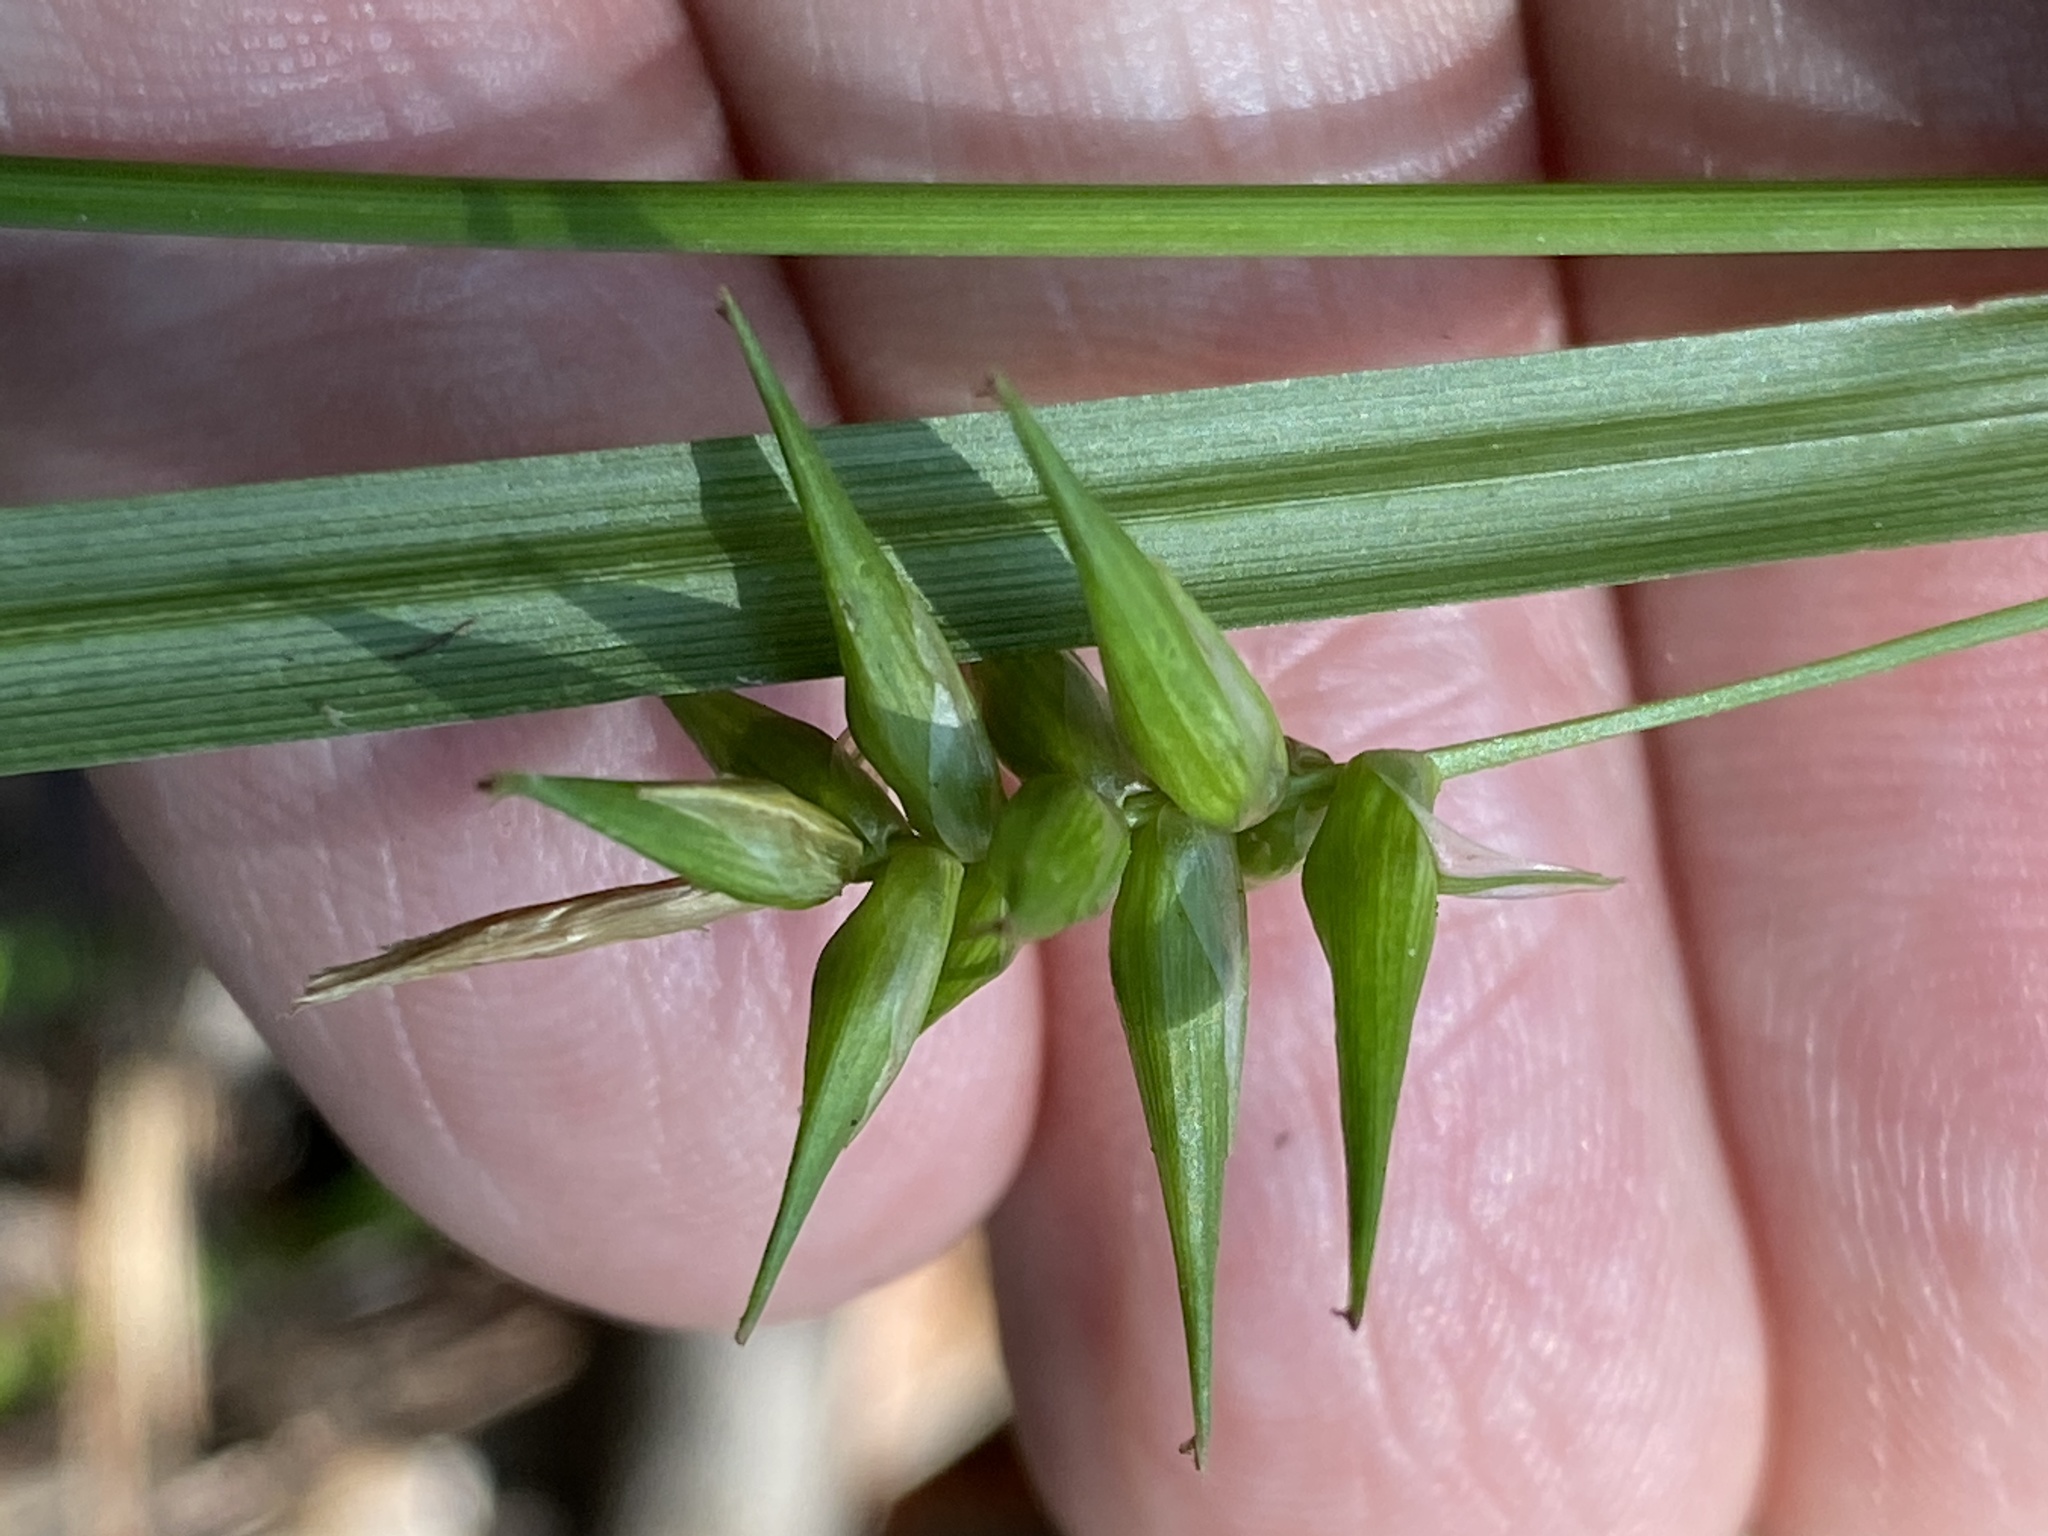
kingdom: Plantae
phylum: Tracheophyta
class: Liliopsida
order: Poales
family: Cyperaceae
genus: Carex
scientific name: Carex lonchocarpa
